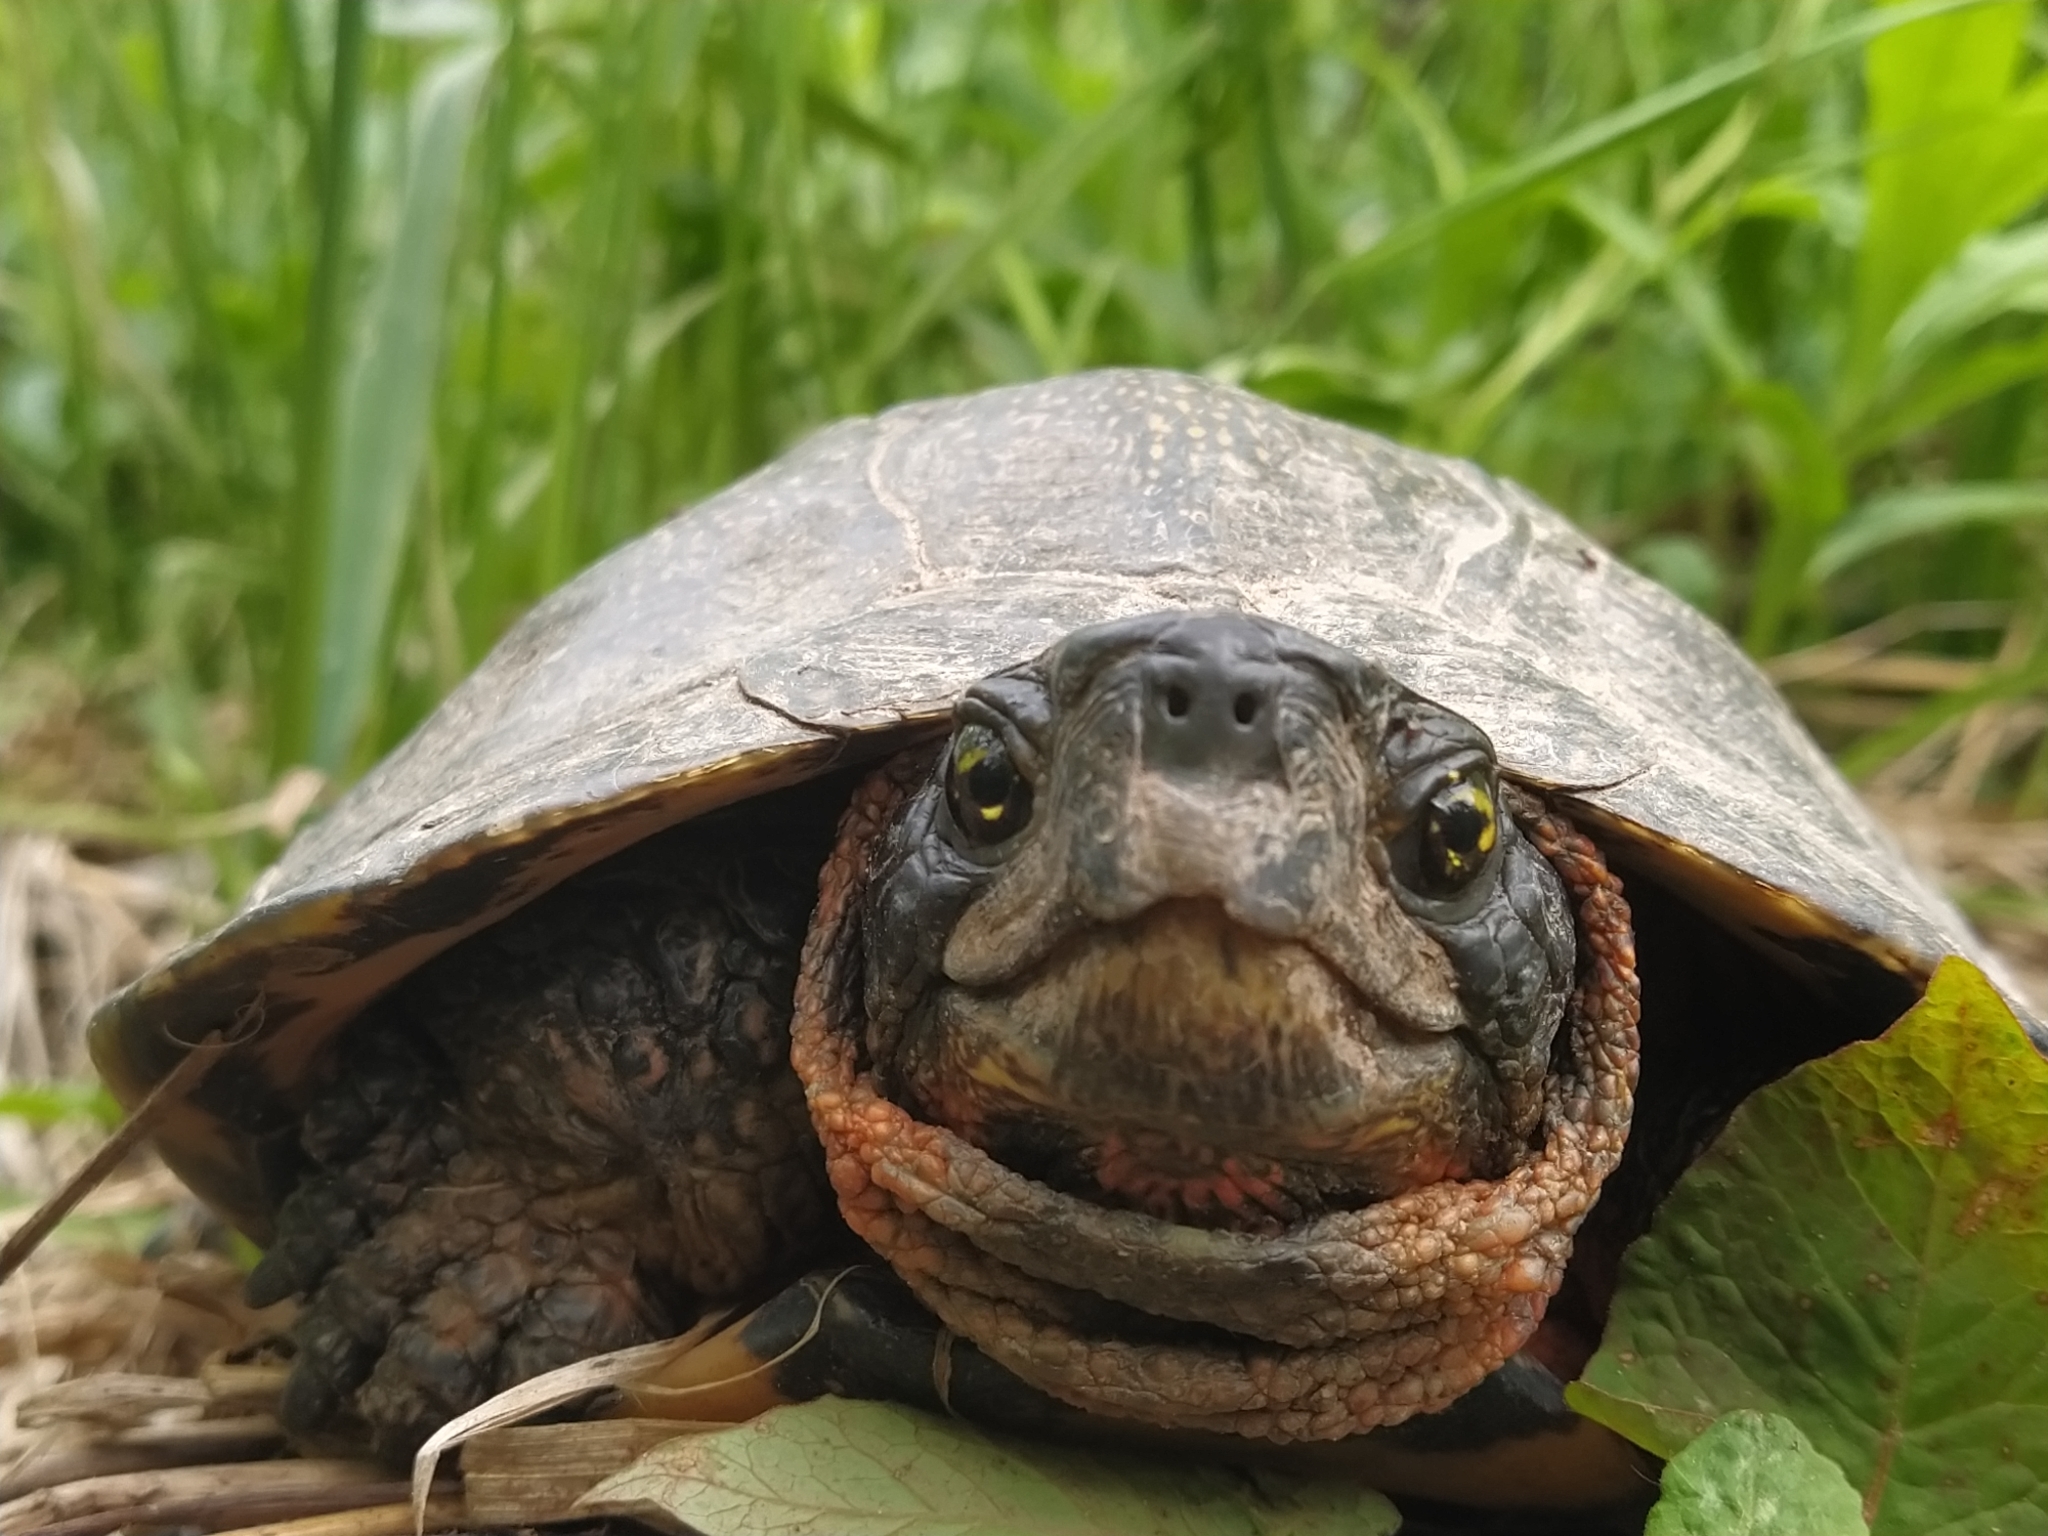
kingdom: Animalia
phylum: Chordata
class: Testudines
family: Emydidae
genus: Glyptemys
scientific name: Glyptemys insculpta
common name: Wood turtle
